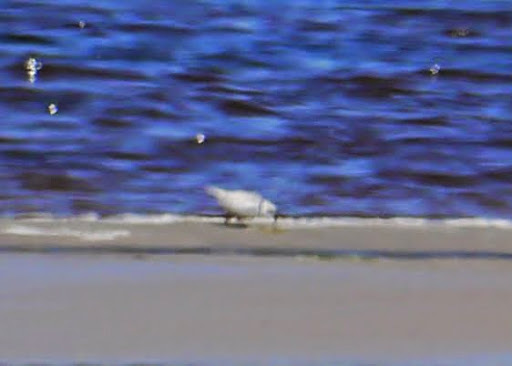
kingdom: Animalia
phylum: Chordata
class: Aves
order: Charadriiformes
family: Charadriidae
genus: Charadrius
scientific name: Charadrius melodus
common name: Piping plover
